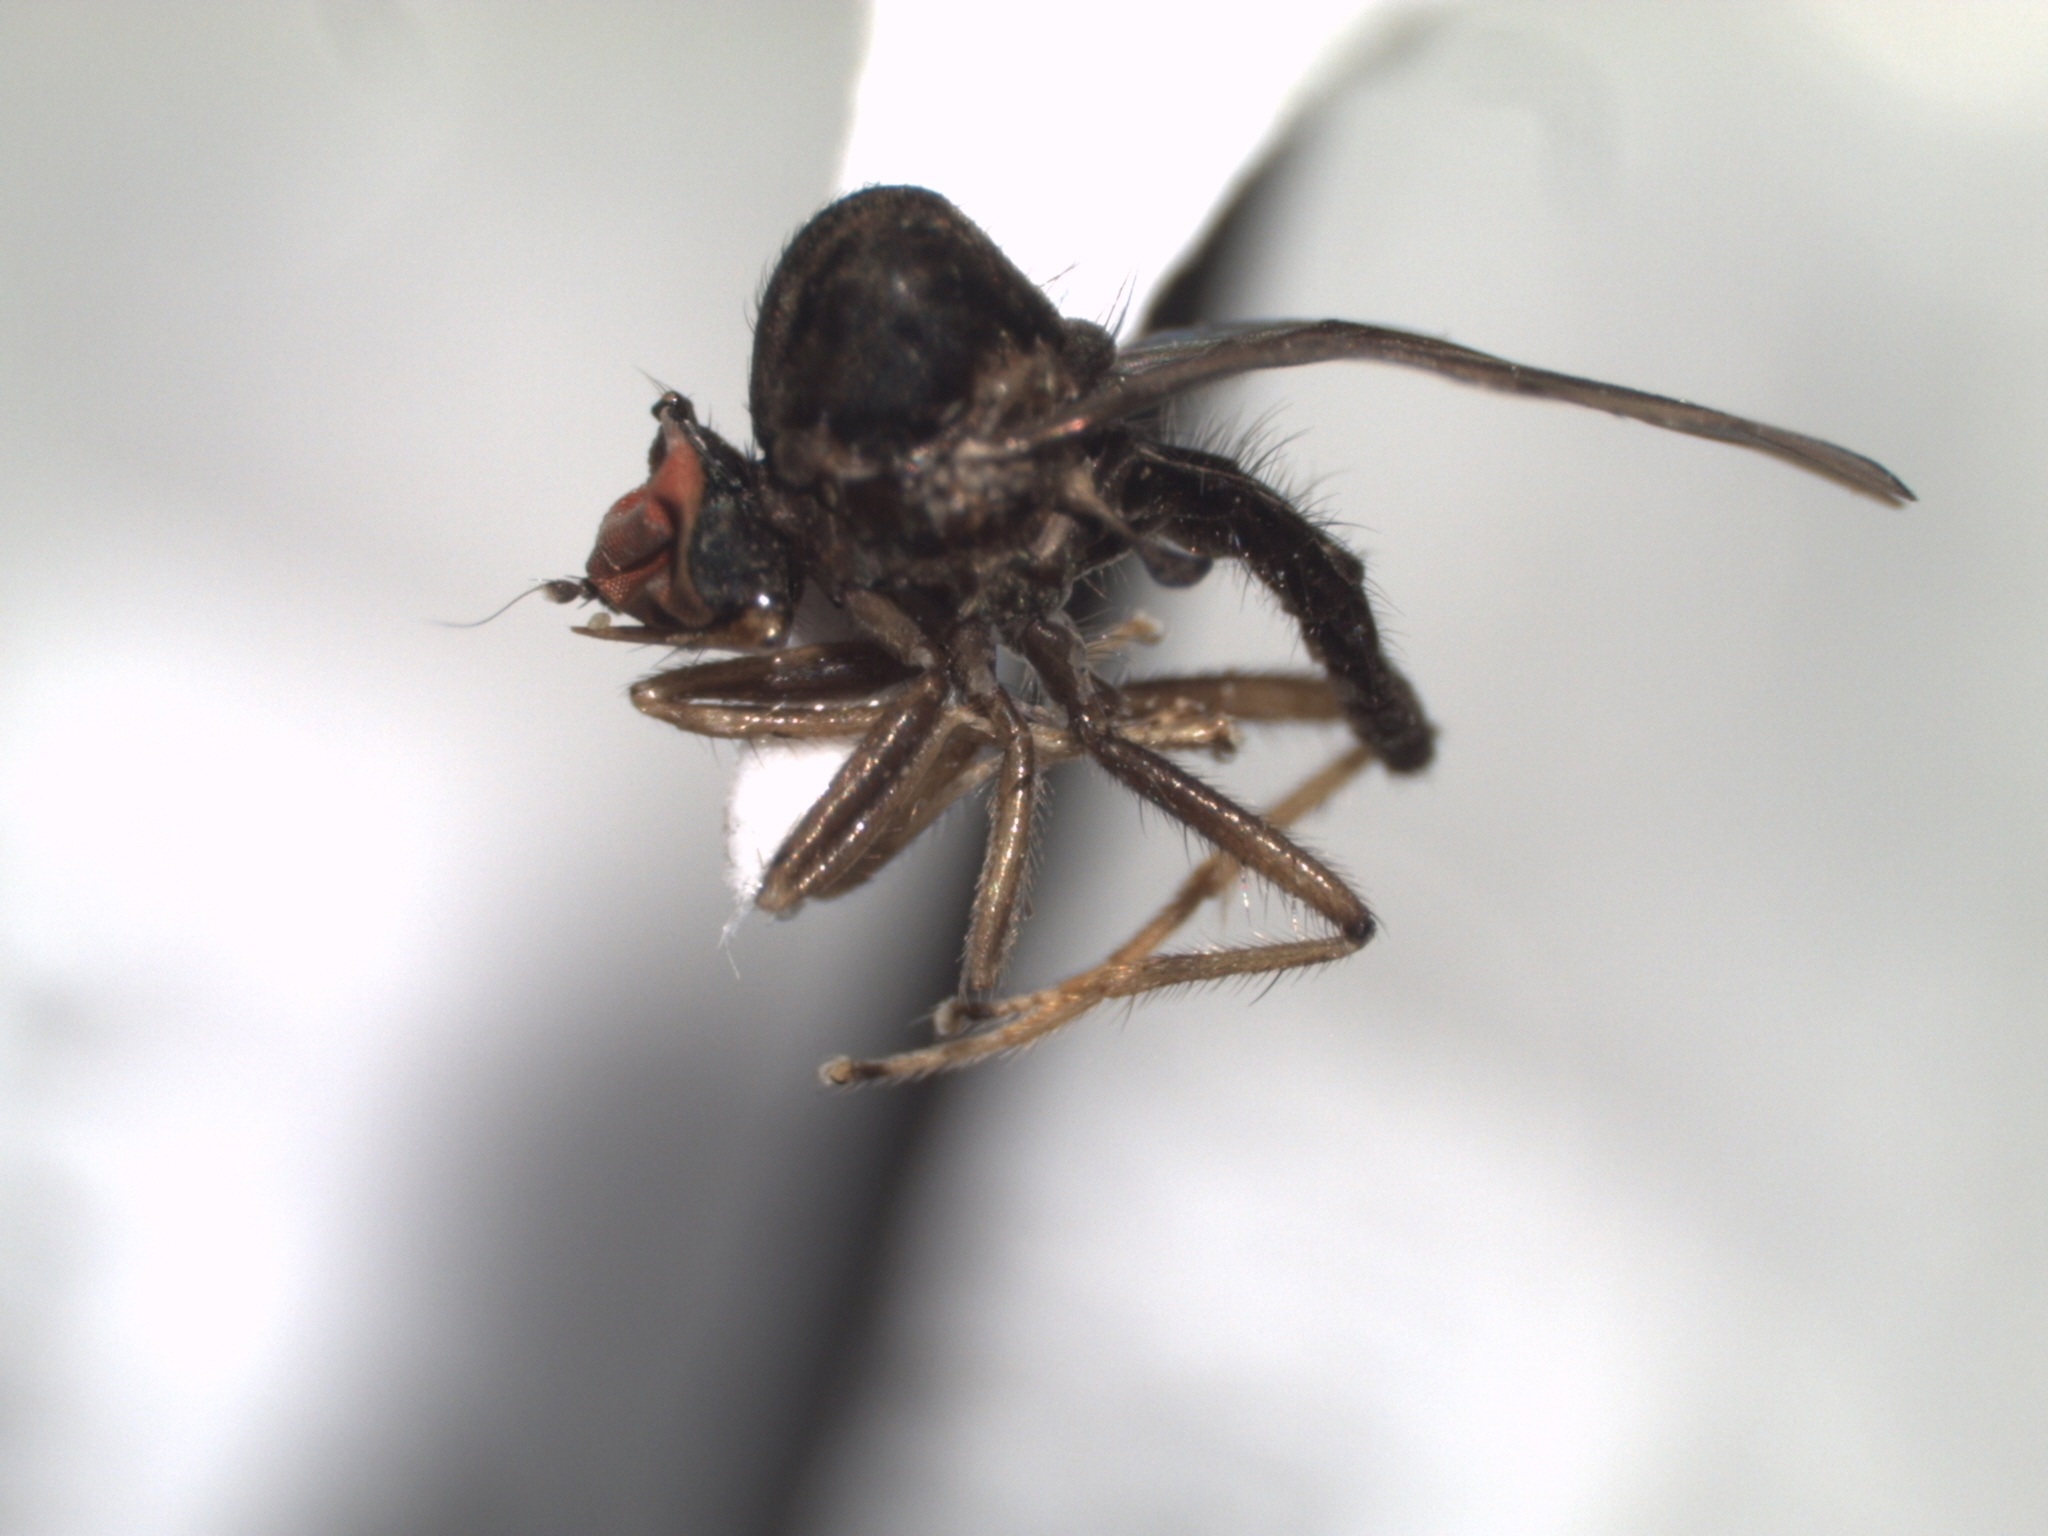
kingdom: Animalia
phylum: Arthropoda
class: Insecta
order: Diptera
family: Hybotidae
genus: Syneches
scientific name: Syneches simplex
